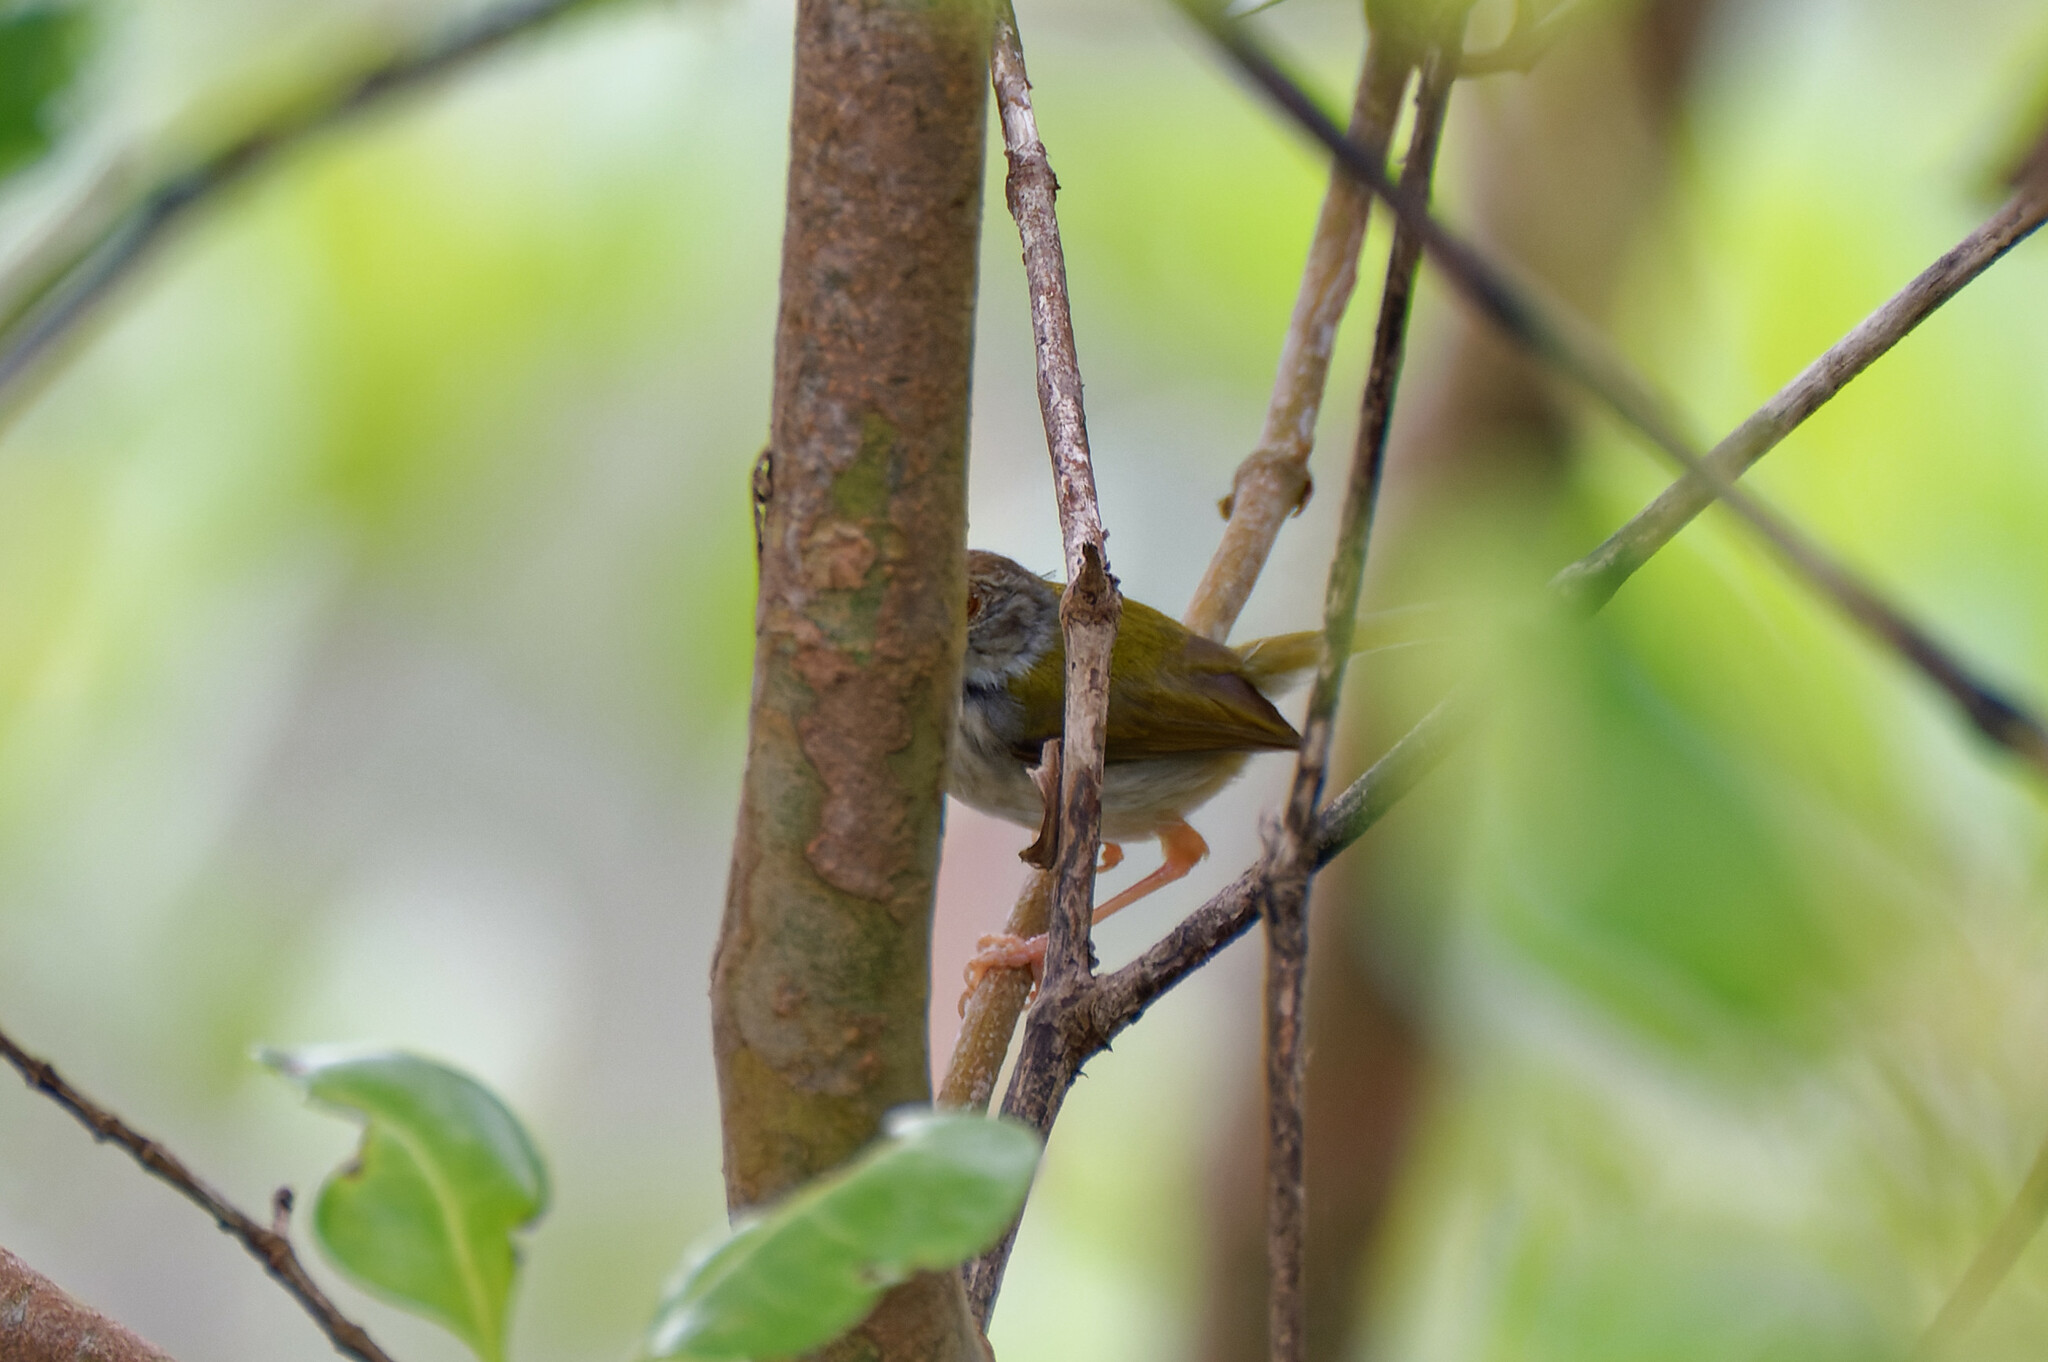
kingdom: Animalia
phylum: Chordata
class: Aves
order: Passeriformes
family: Cisticolidae
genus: Orthotomus
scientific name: Orthotomus sutorius
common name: Common tailorbird
